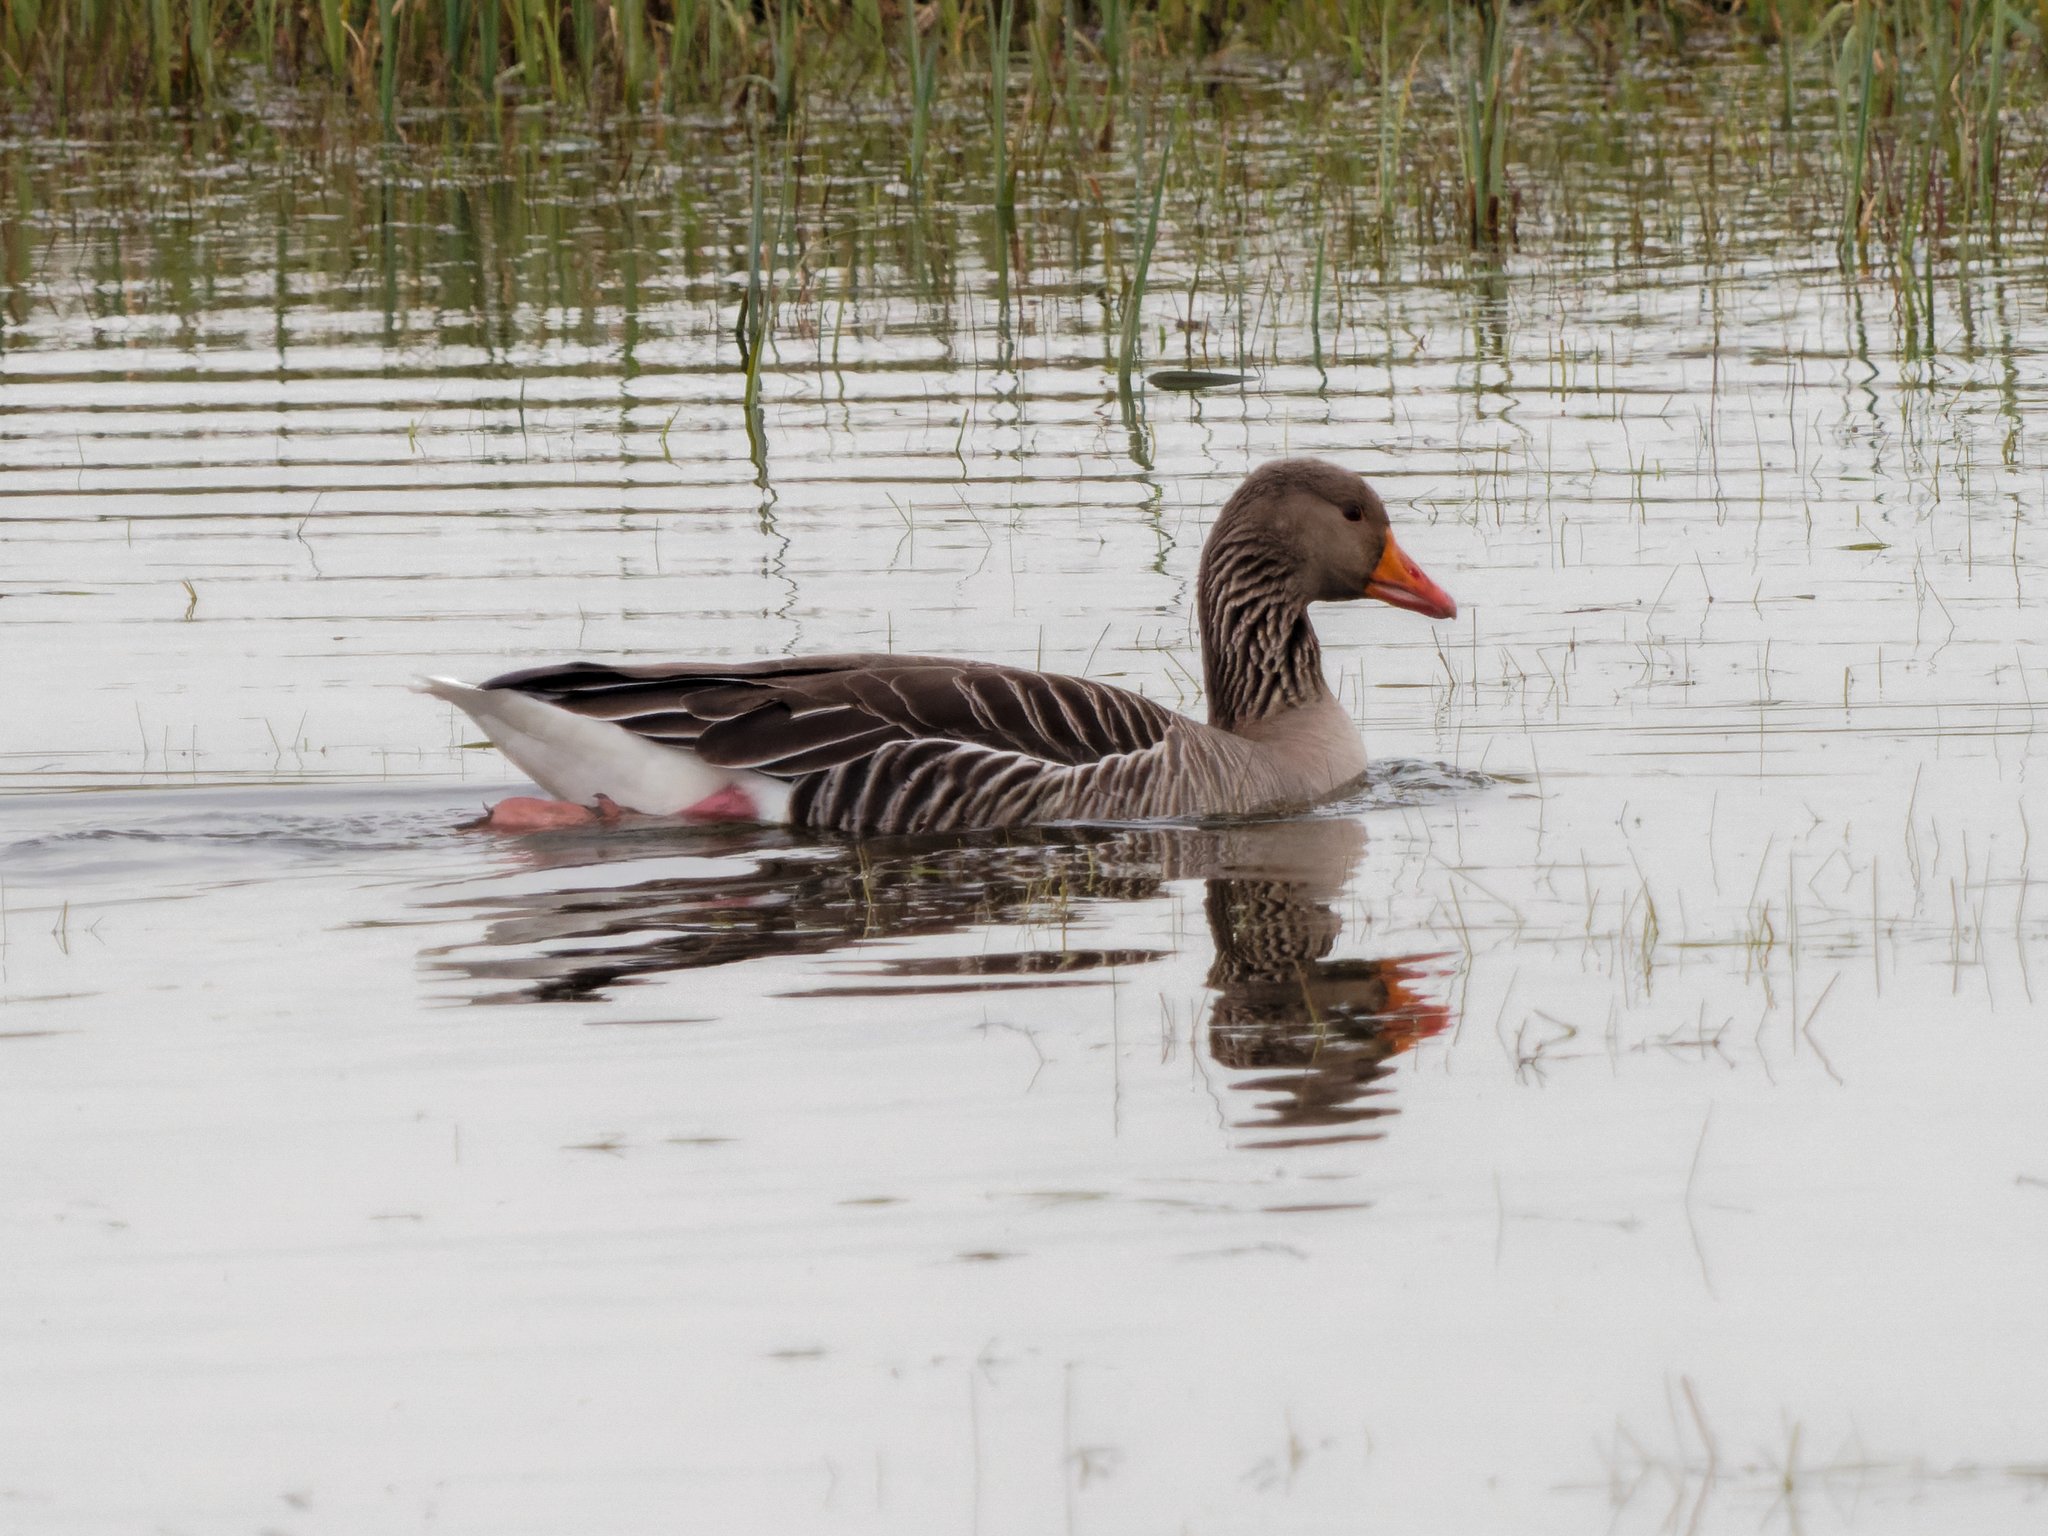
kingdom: Animalia
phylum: Chordata
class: Aves
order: Anseriformes
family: Anatidae
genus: Anser
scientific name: Anser anser
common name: Greylag goose
